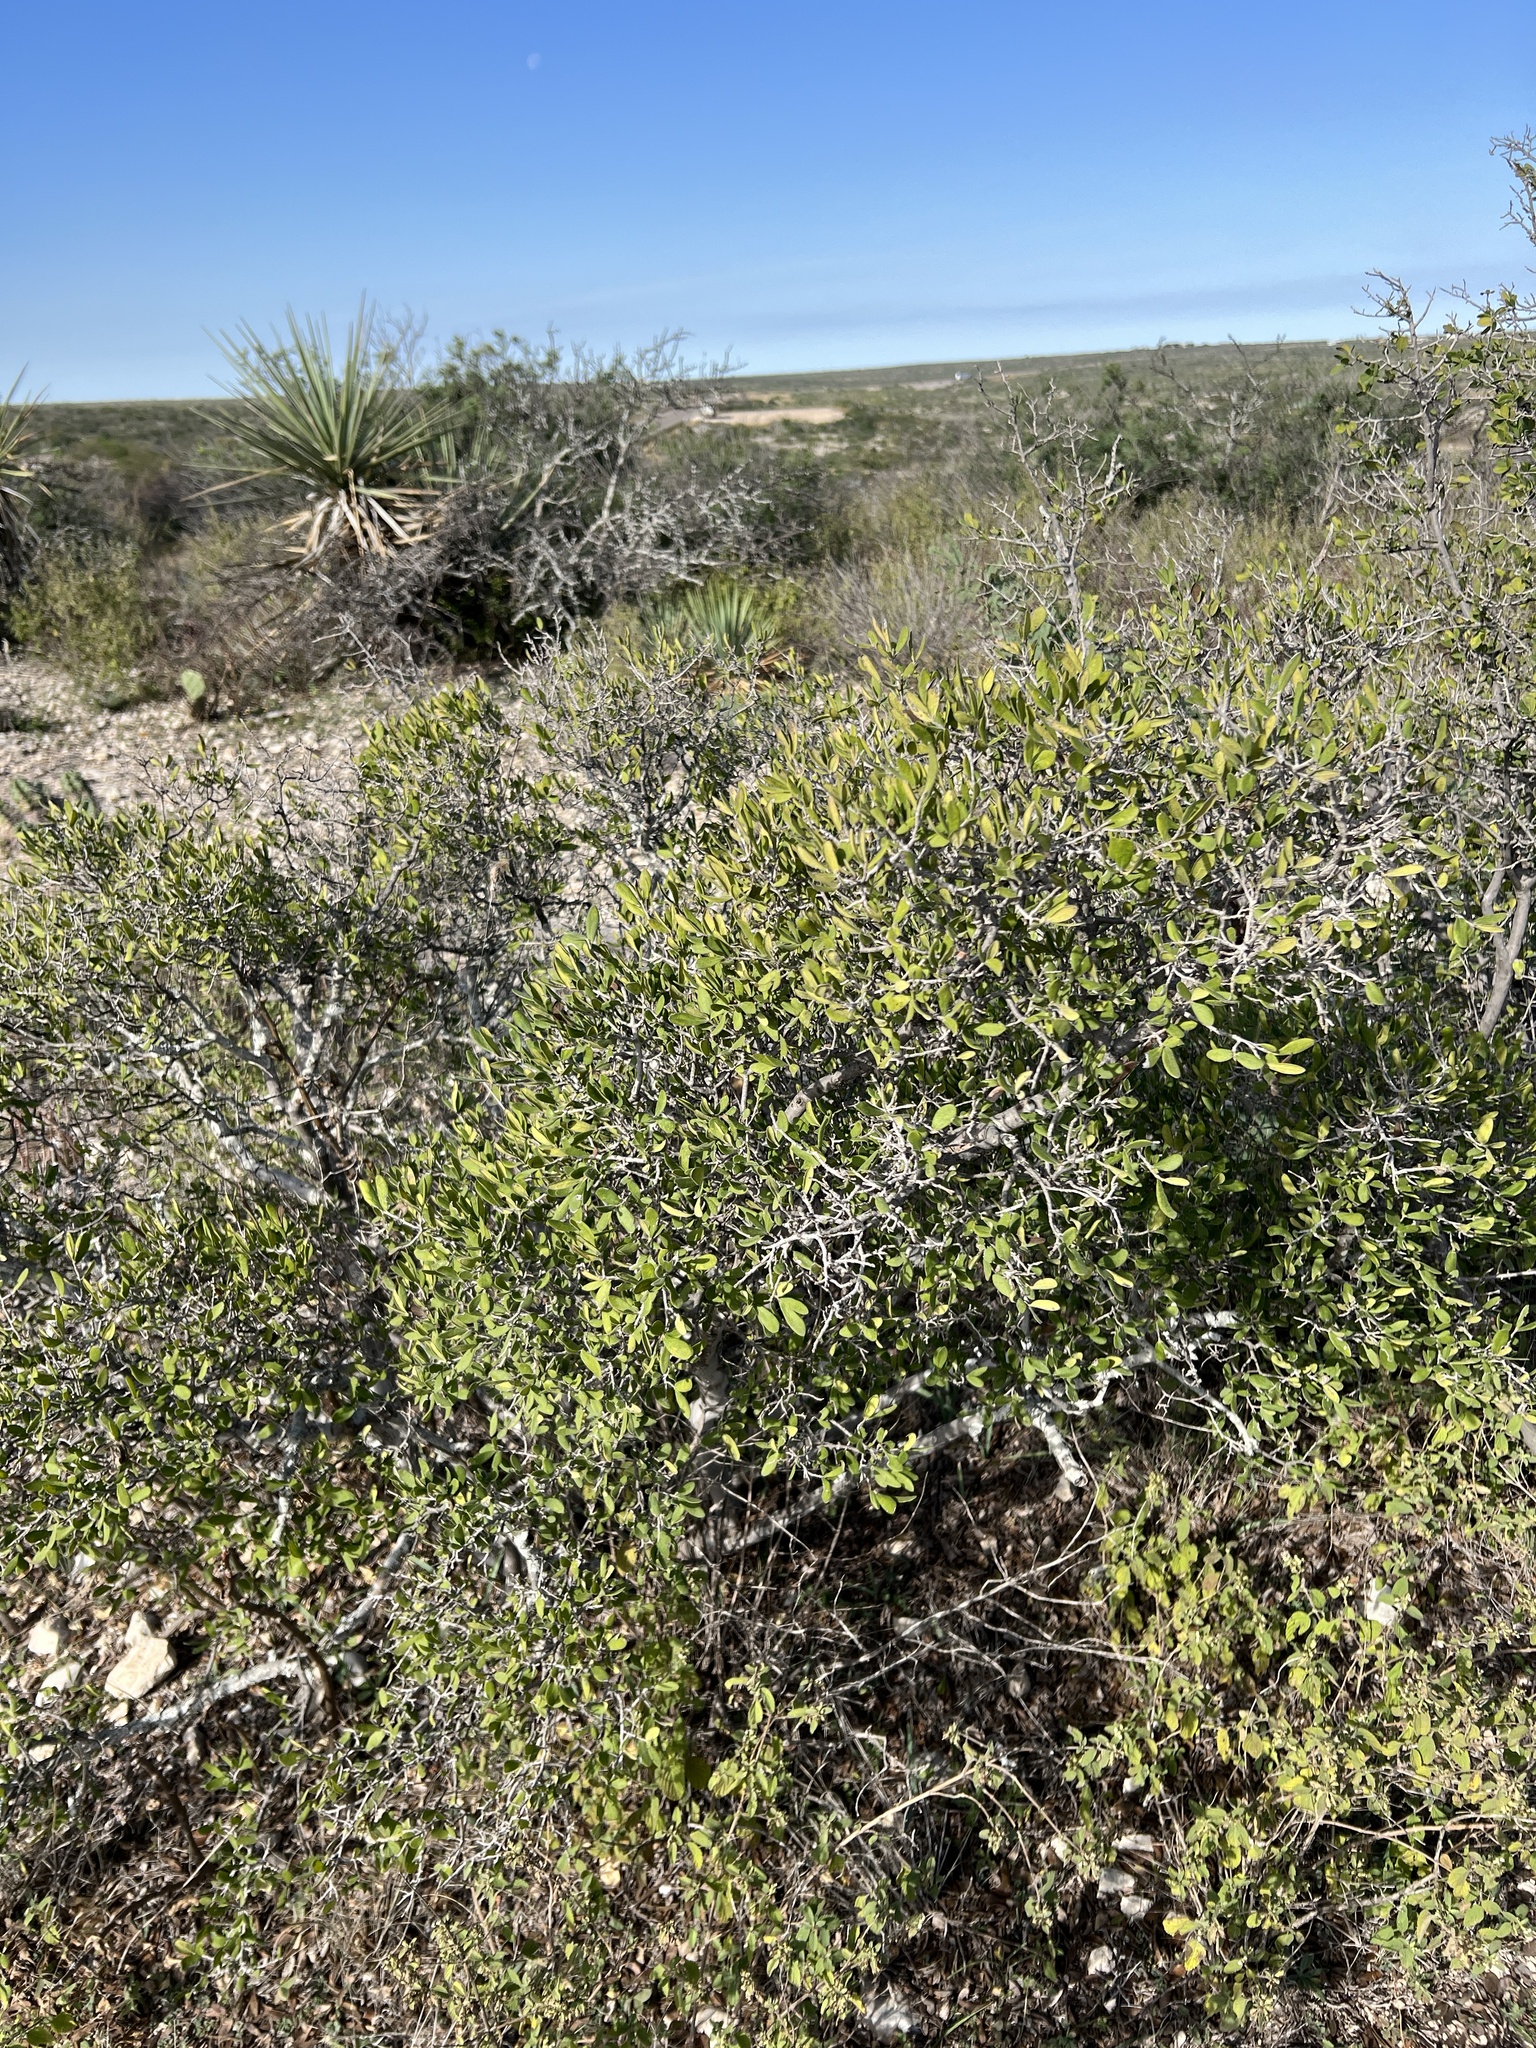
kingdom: Plantae
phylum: Tracheophyta
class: Magnoliopsida
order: Ericales
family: Ebenaceae
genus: Diospyros
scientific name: Diospyros texana
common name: Texas persimmon
